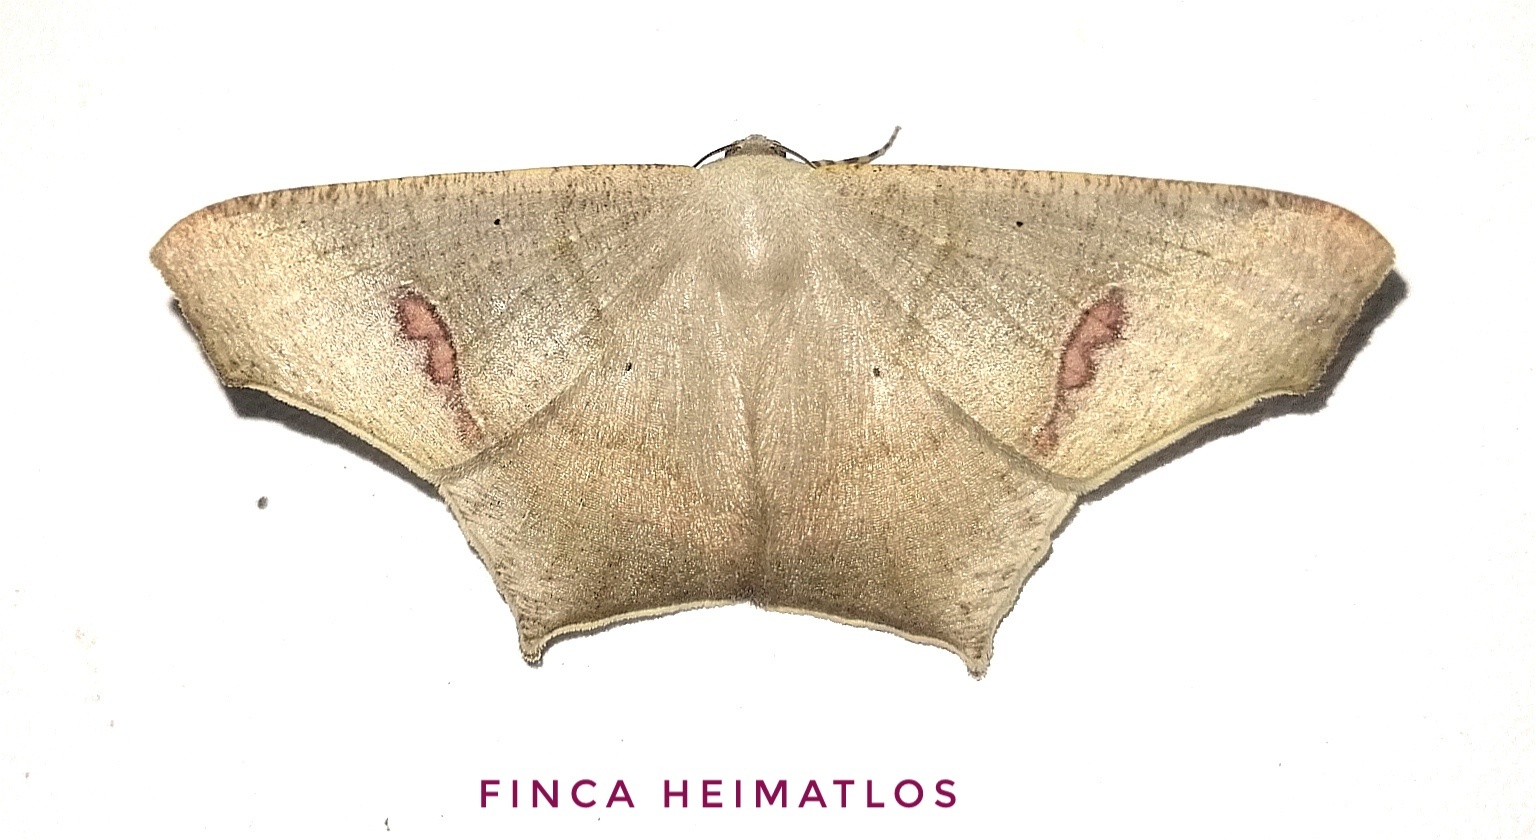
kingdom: Animalia
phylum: Arthropoda
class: Insecta
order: Lepidoptera
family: Geometridae
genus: Euclysia
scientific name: Euclysia columbipennis
